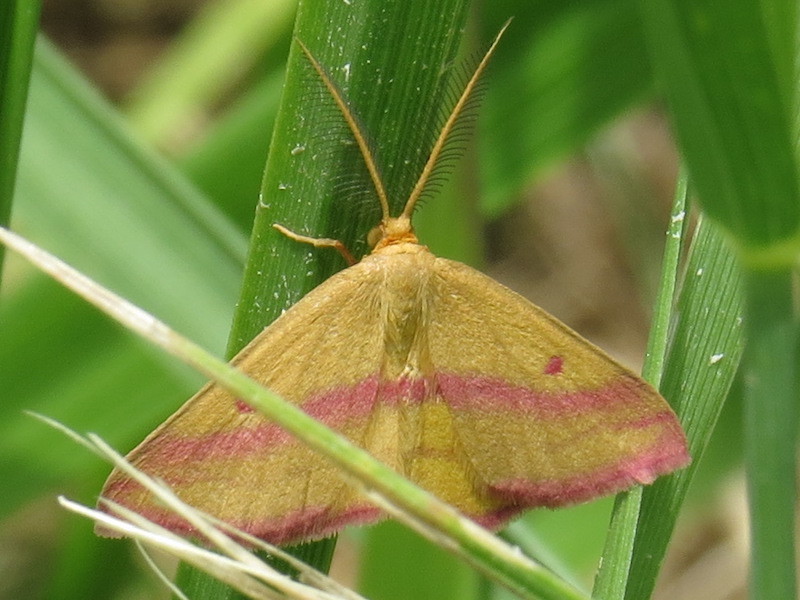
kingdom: Animalia
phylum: Arthropoda
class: Insecta
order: Lepidoptera
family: Geometridae
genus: Haematopis
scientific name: Haematopis grataria
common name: Chickweed geometer
